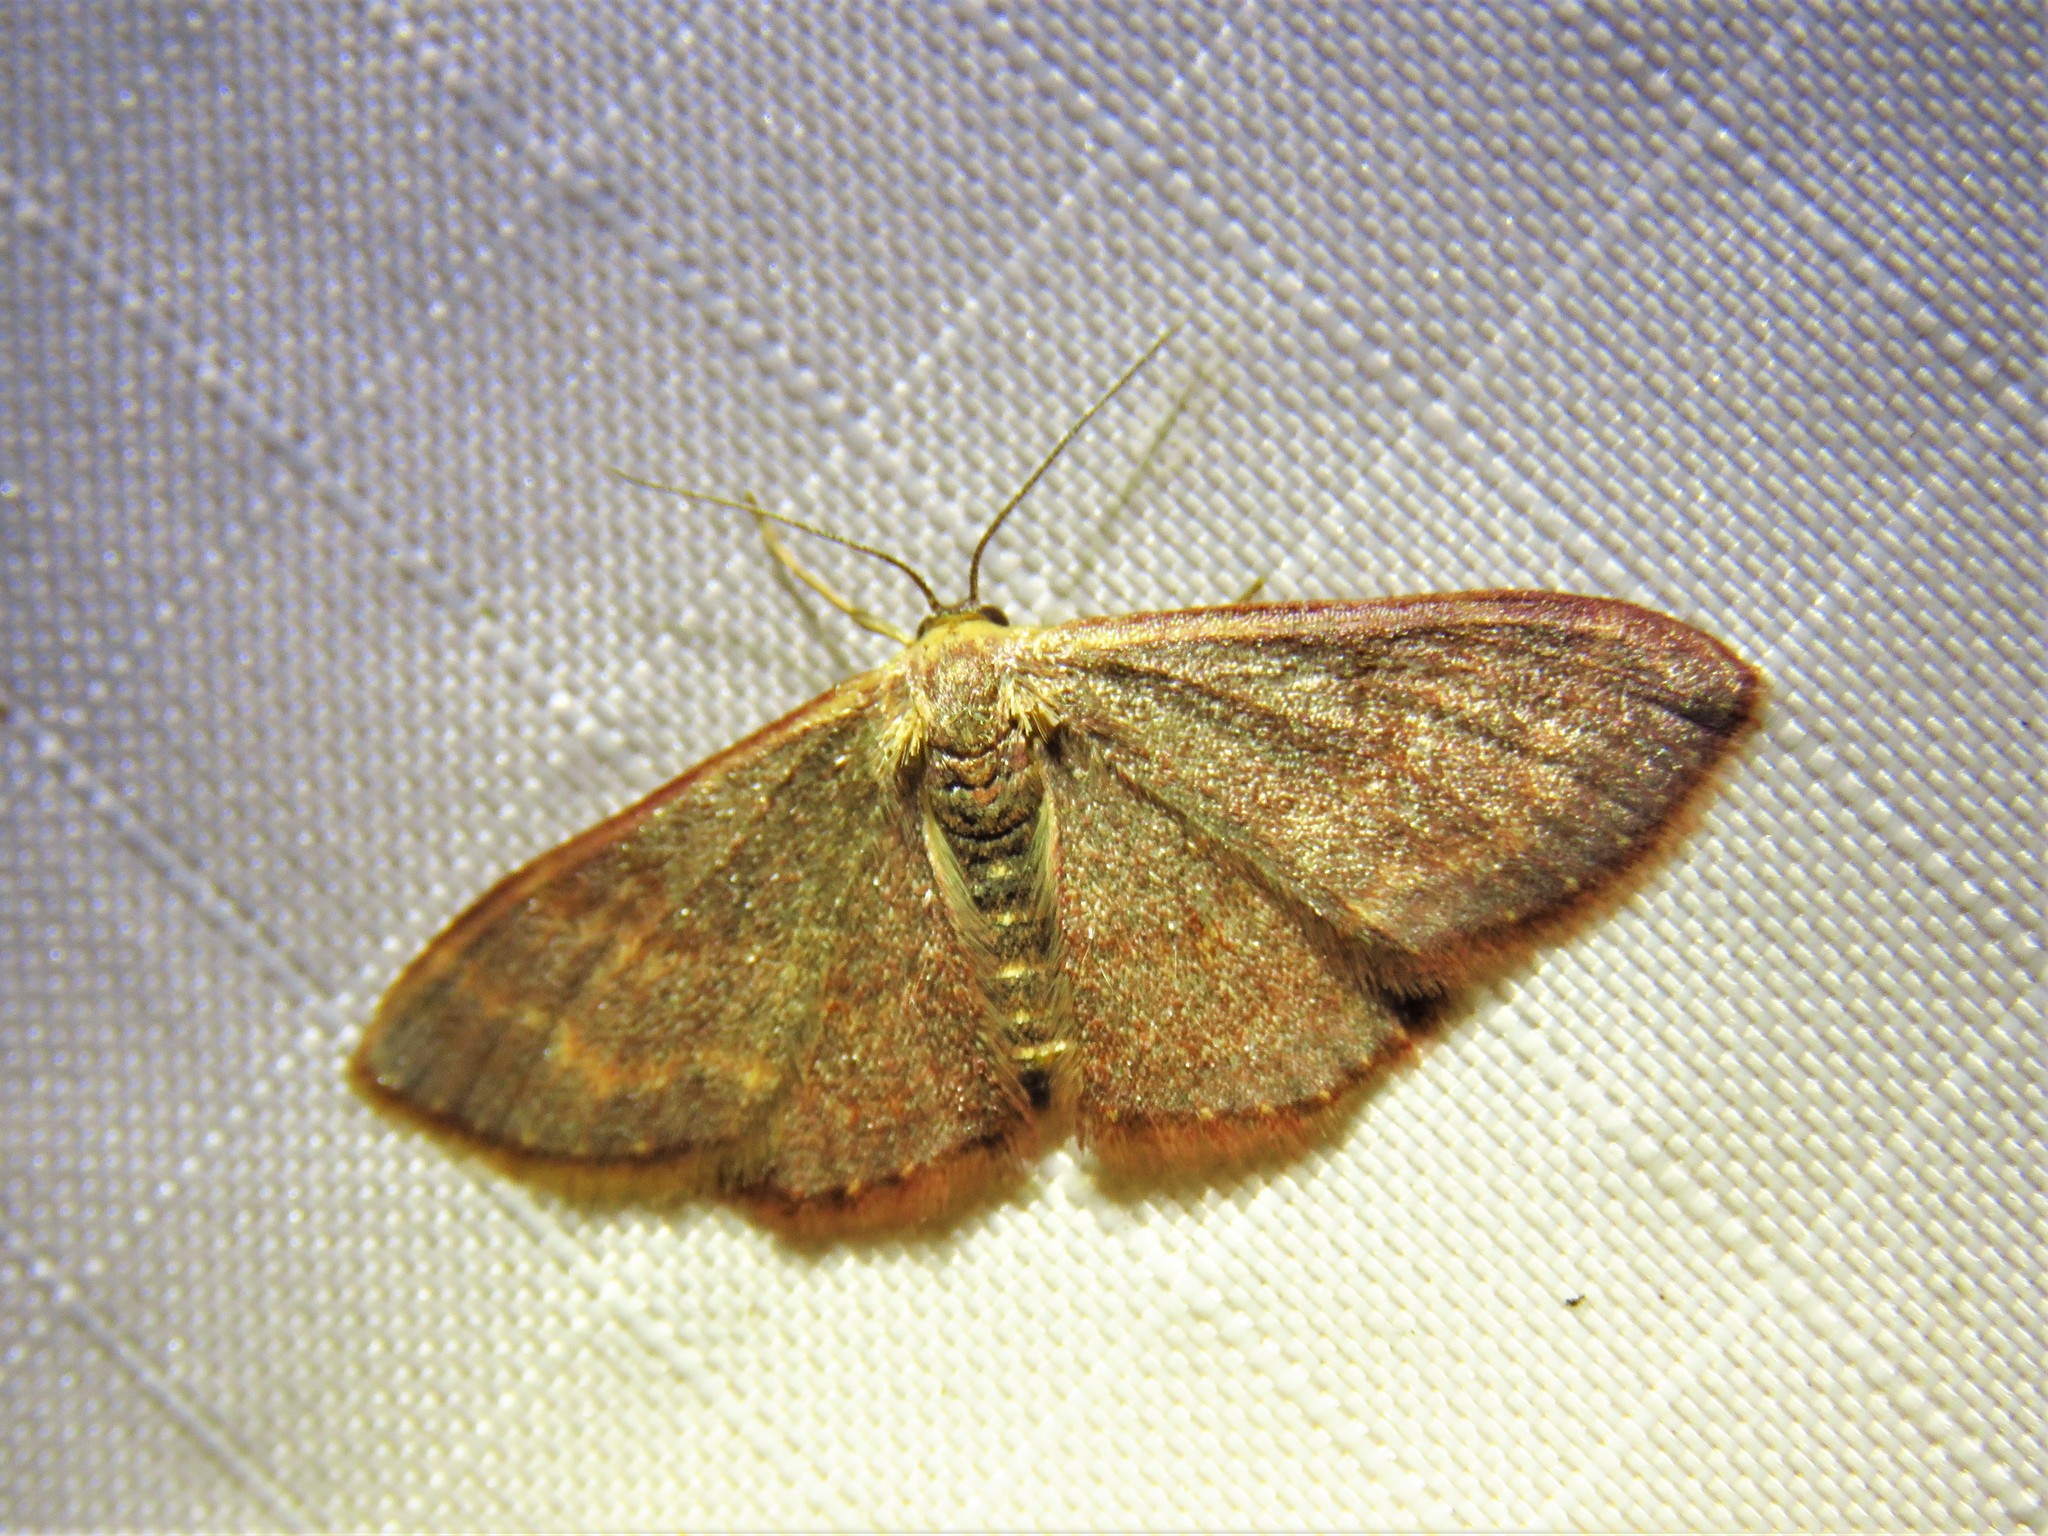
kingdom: Animalia
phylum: Arthropoda
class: Insecta
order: Lepidoptera
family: Geometridae
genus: Leptostales
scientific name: Leptostales pannaria
